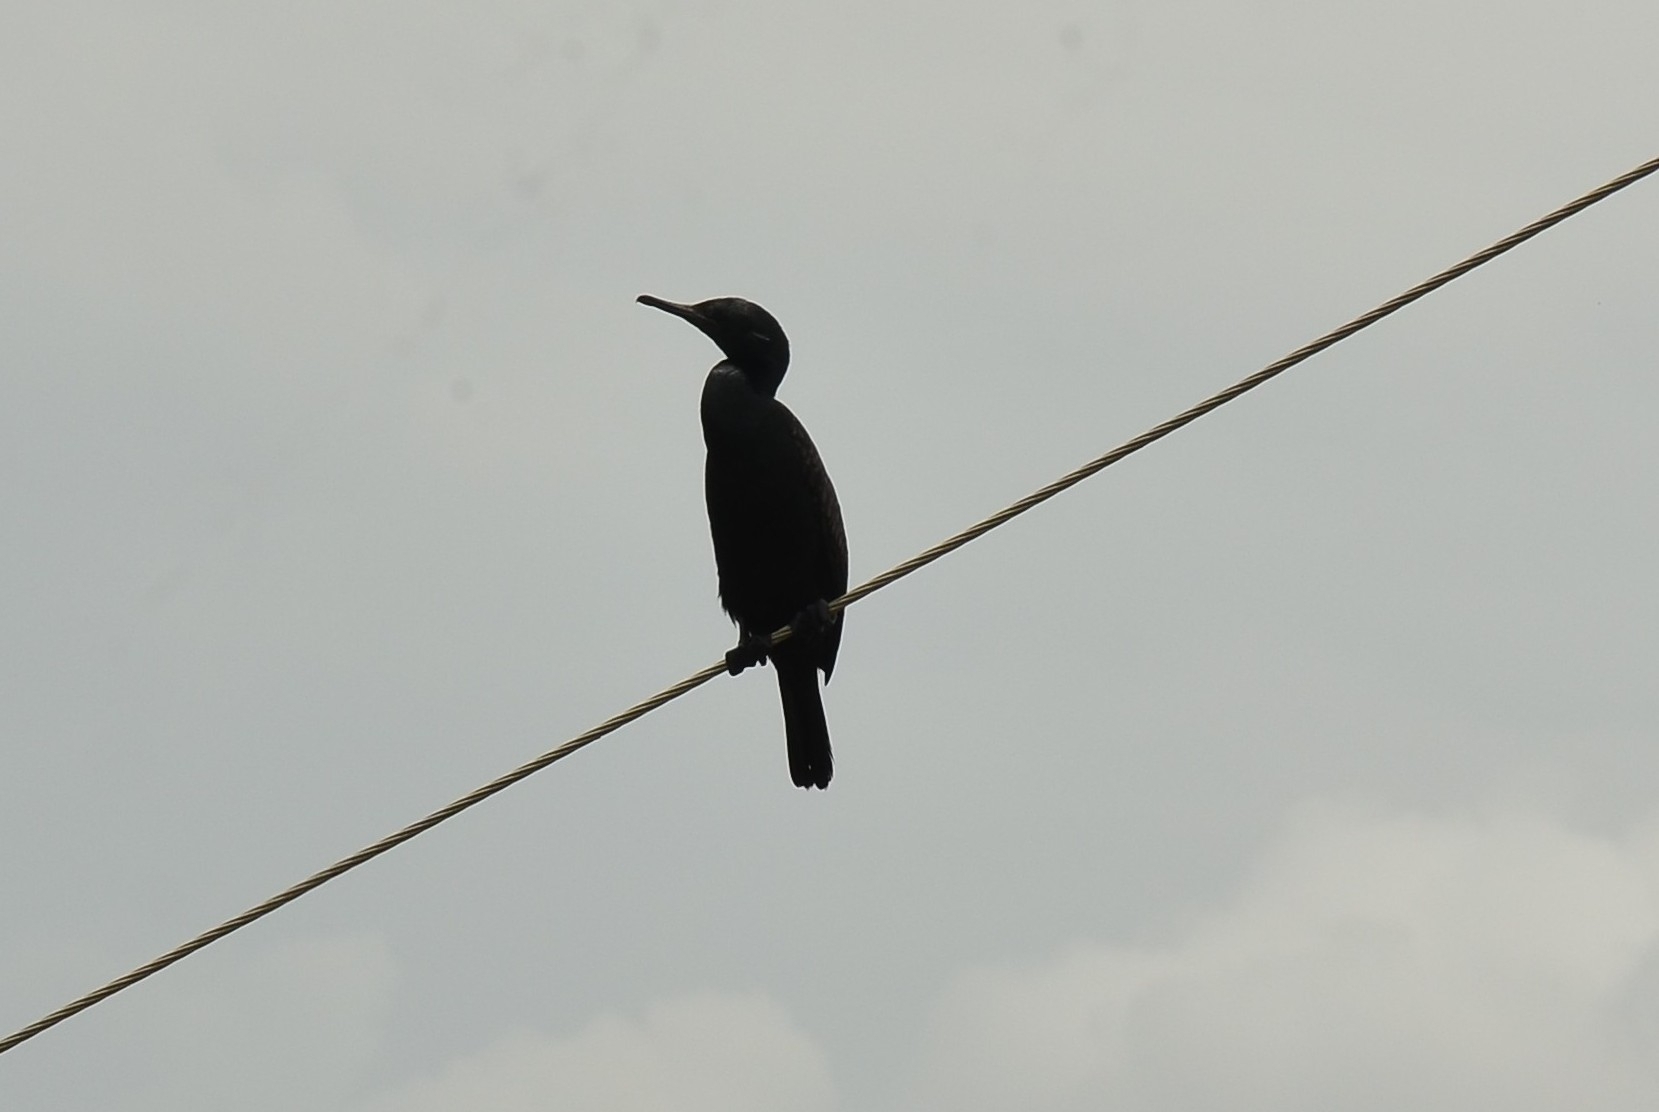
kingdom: Animalia
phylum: Chordata
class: Aves
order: Suliformes
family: Phalacrocoracidae
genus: Phalacrocorax
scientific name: Phalacrocorax fuscicollis
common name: Indian cormorant
